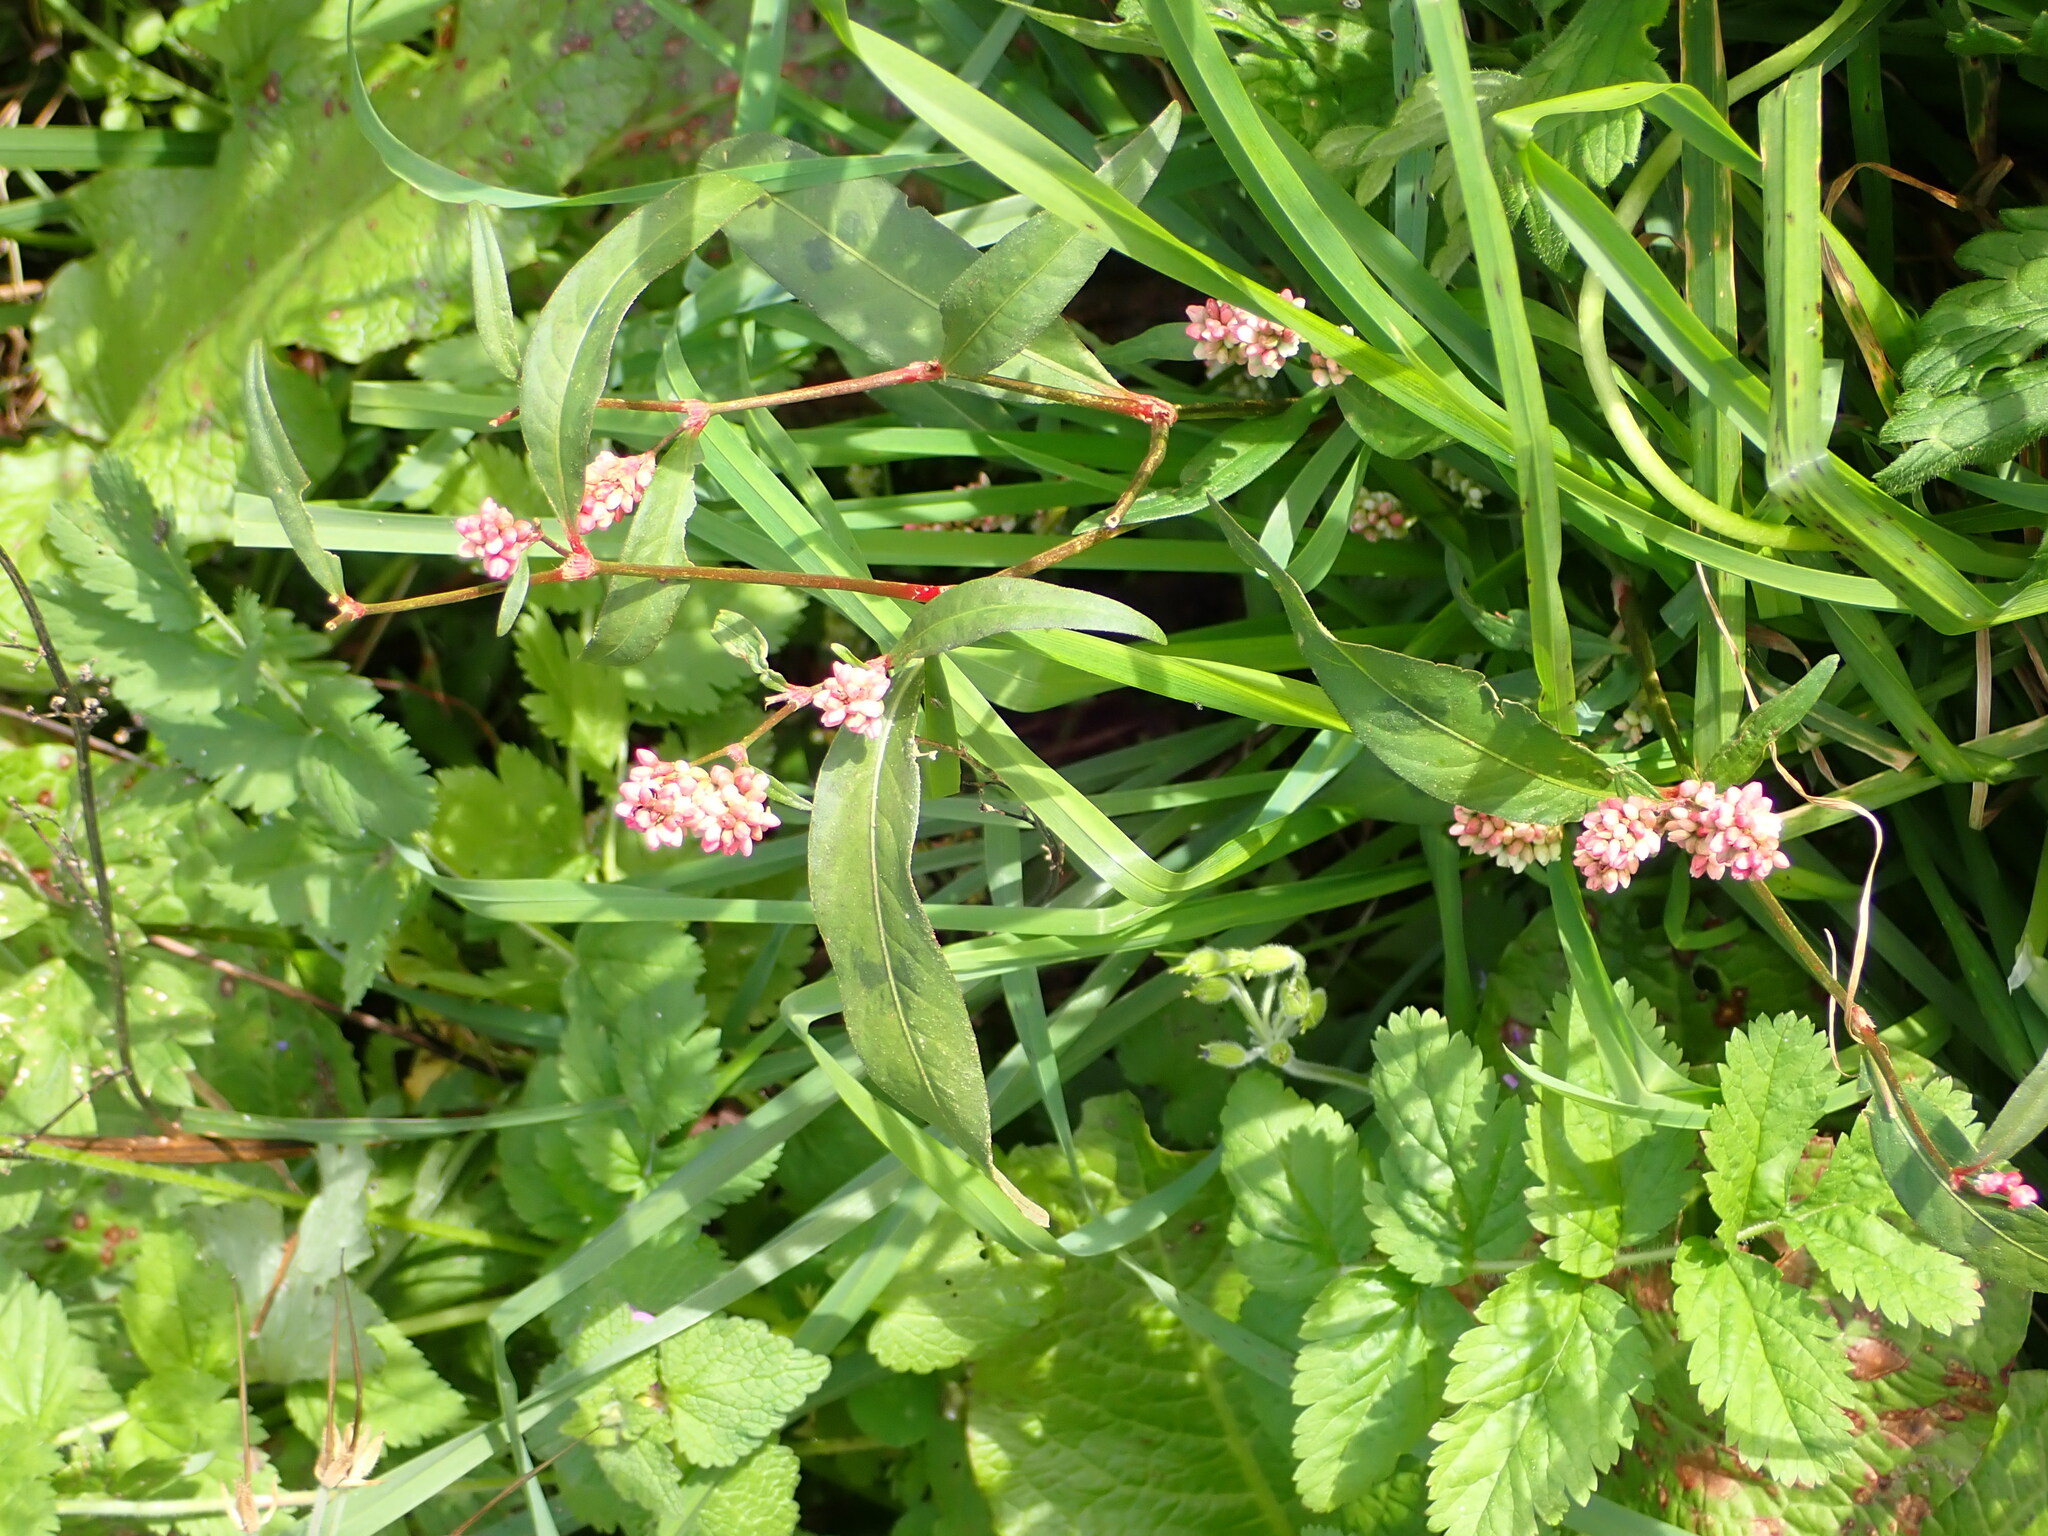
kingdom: Plantae
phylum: Tracheophyta
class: Magnoliopsida
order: Caryophyllales
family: Polygonaceae
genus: Persicaria
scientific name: Persicaria maculosa
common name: Redshank
